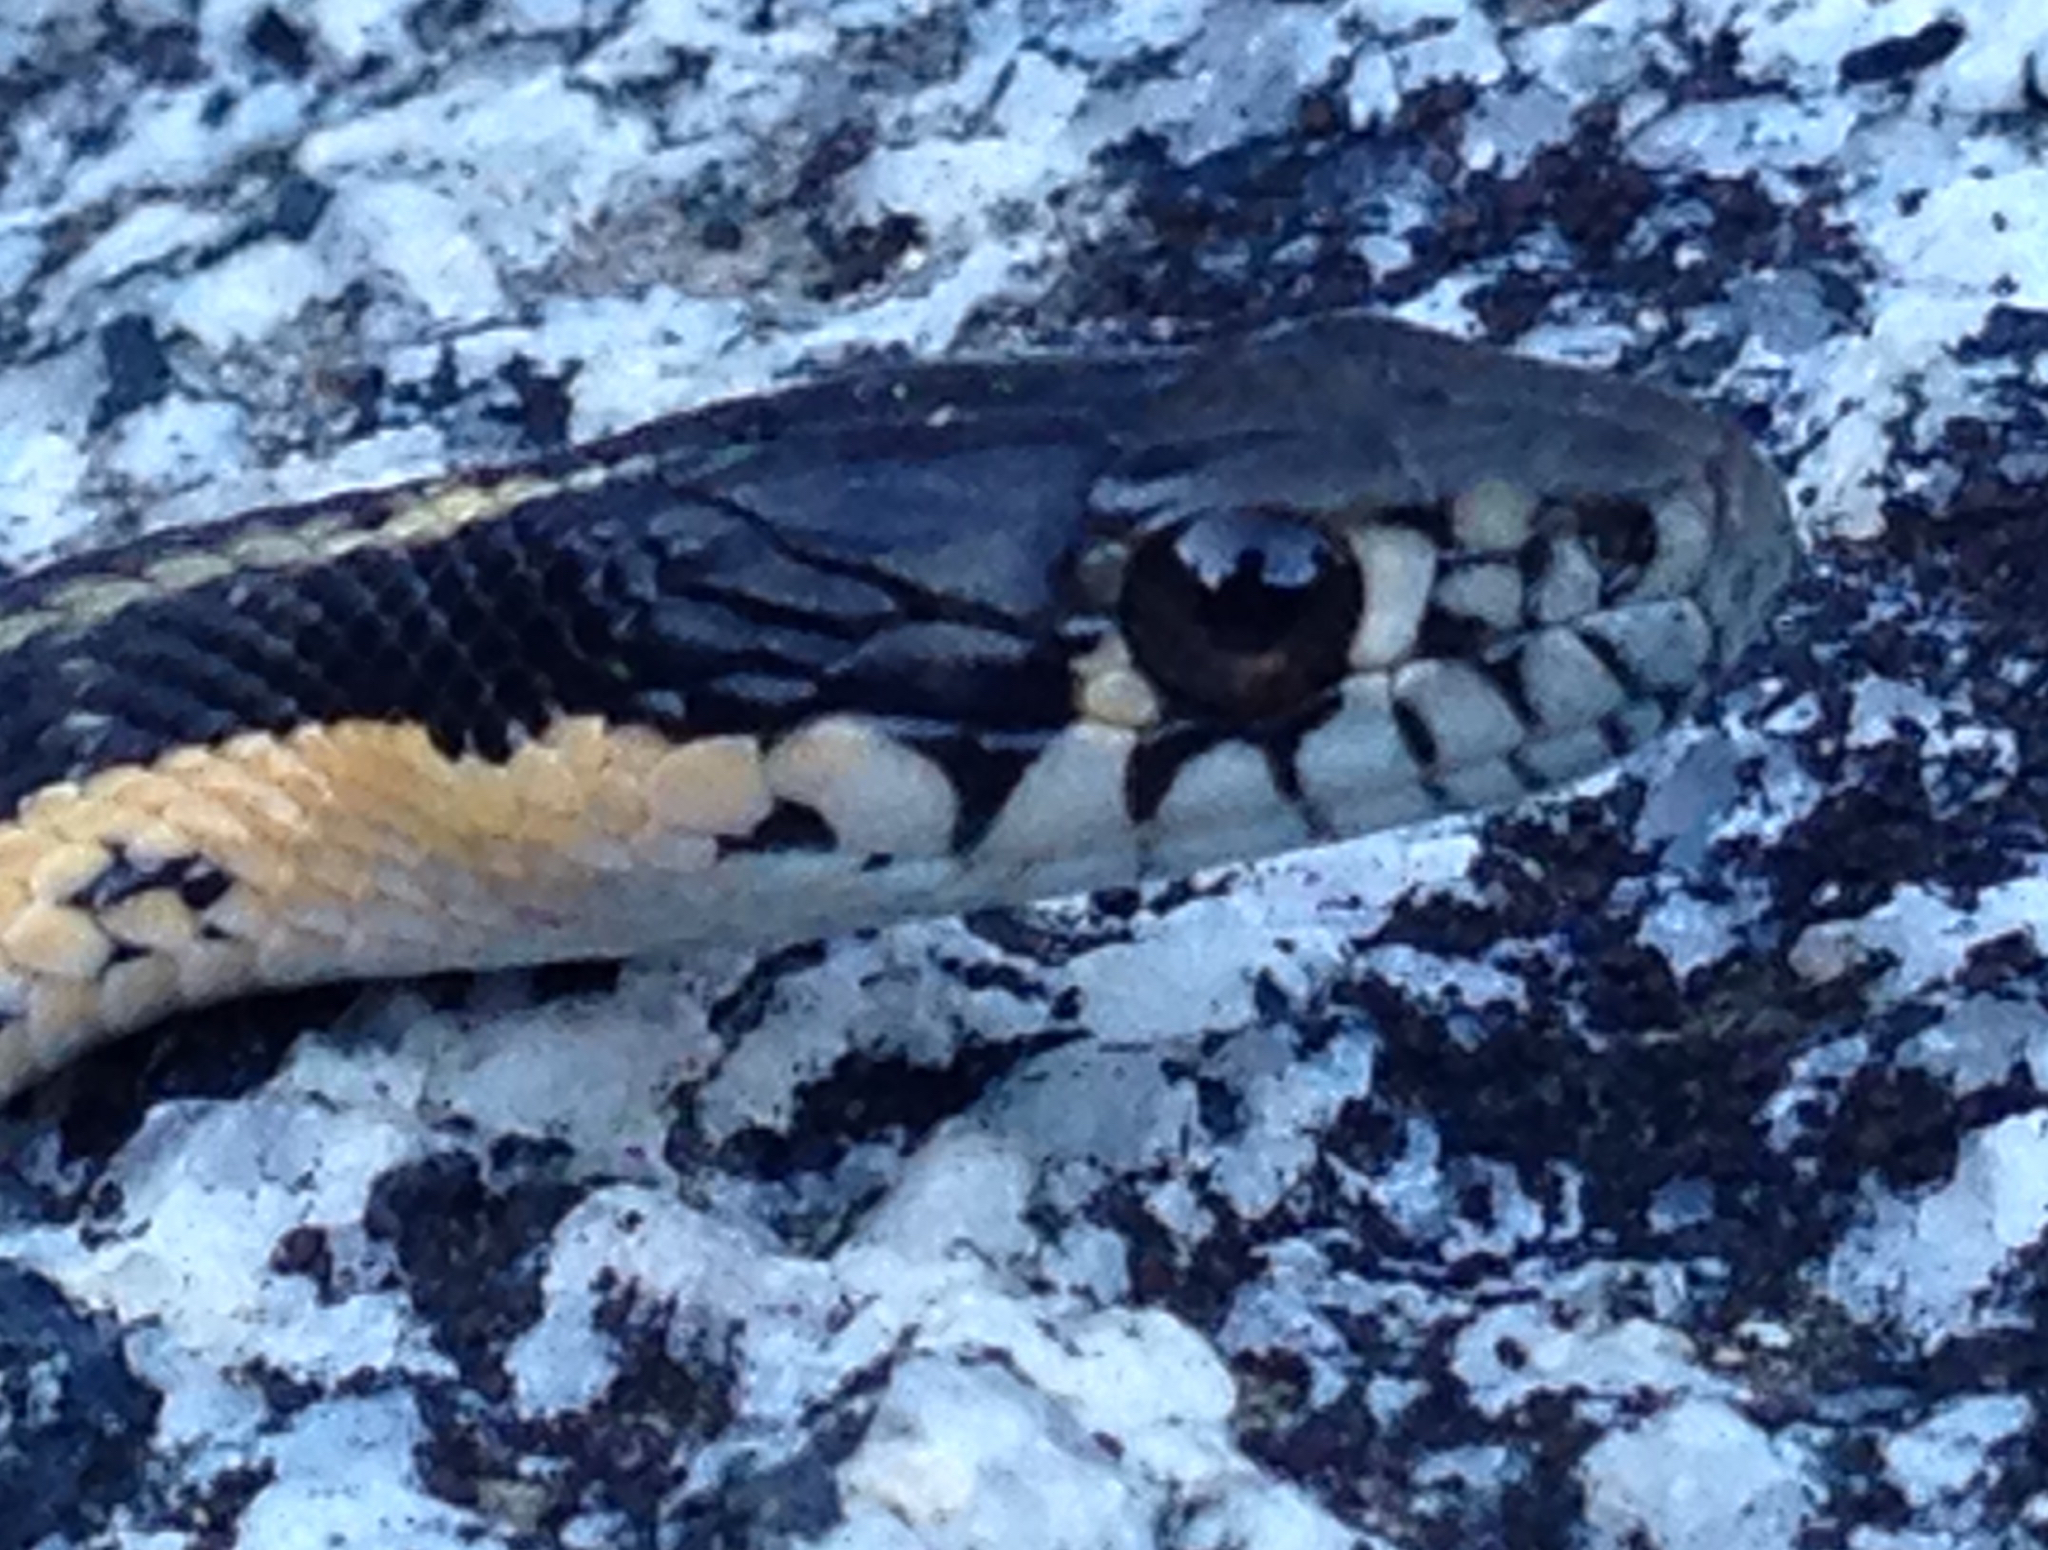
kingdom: Animalia
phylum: Chordata
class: Squamata
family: Colubridae
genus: Thamnophis
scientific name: Thamnophis atratus
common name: Pacific coast aquatic garter snake
